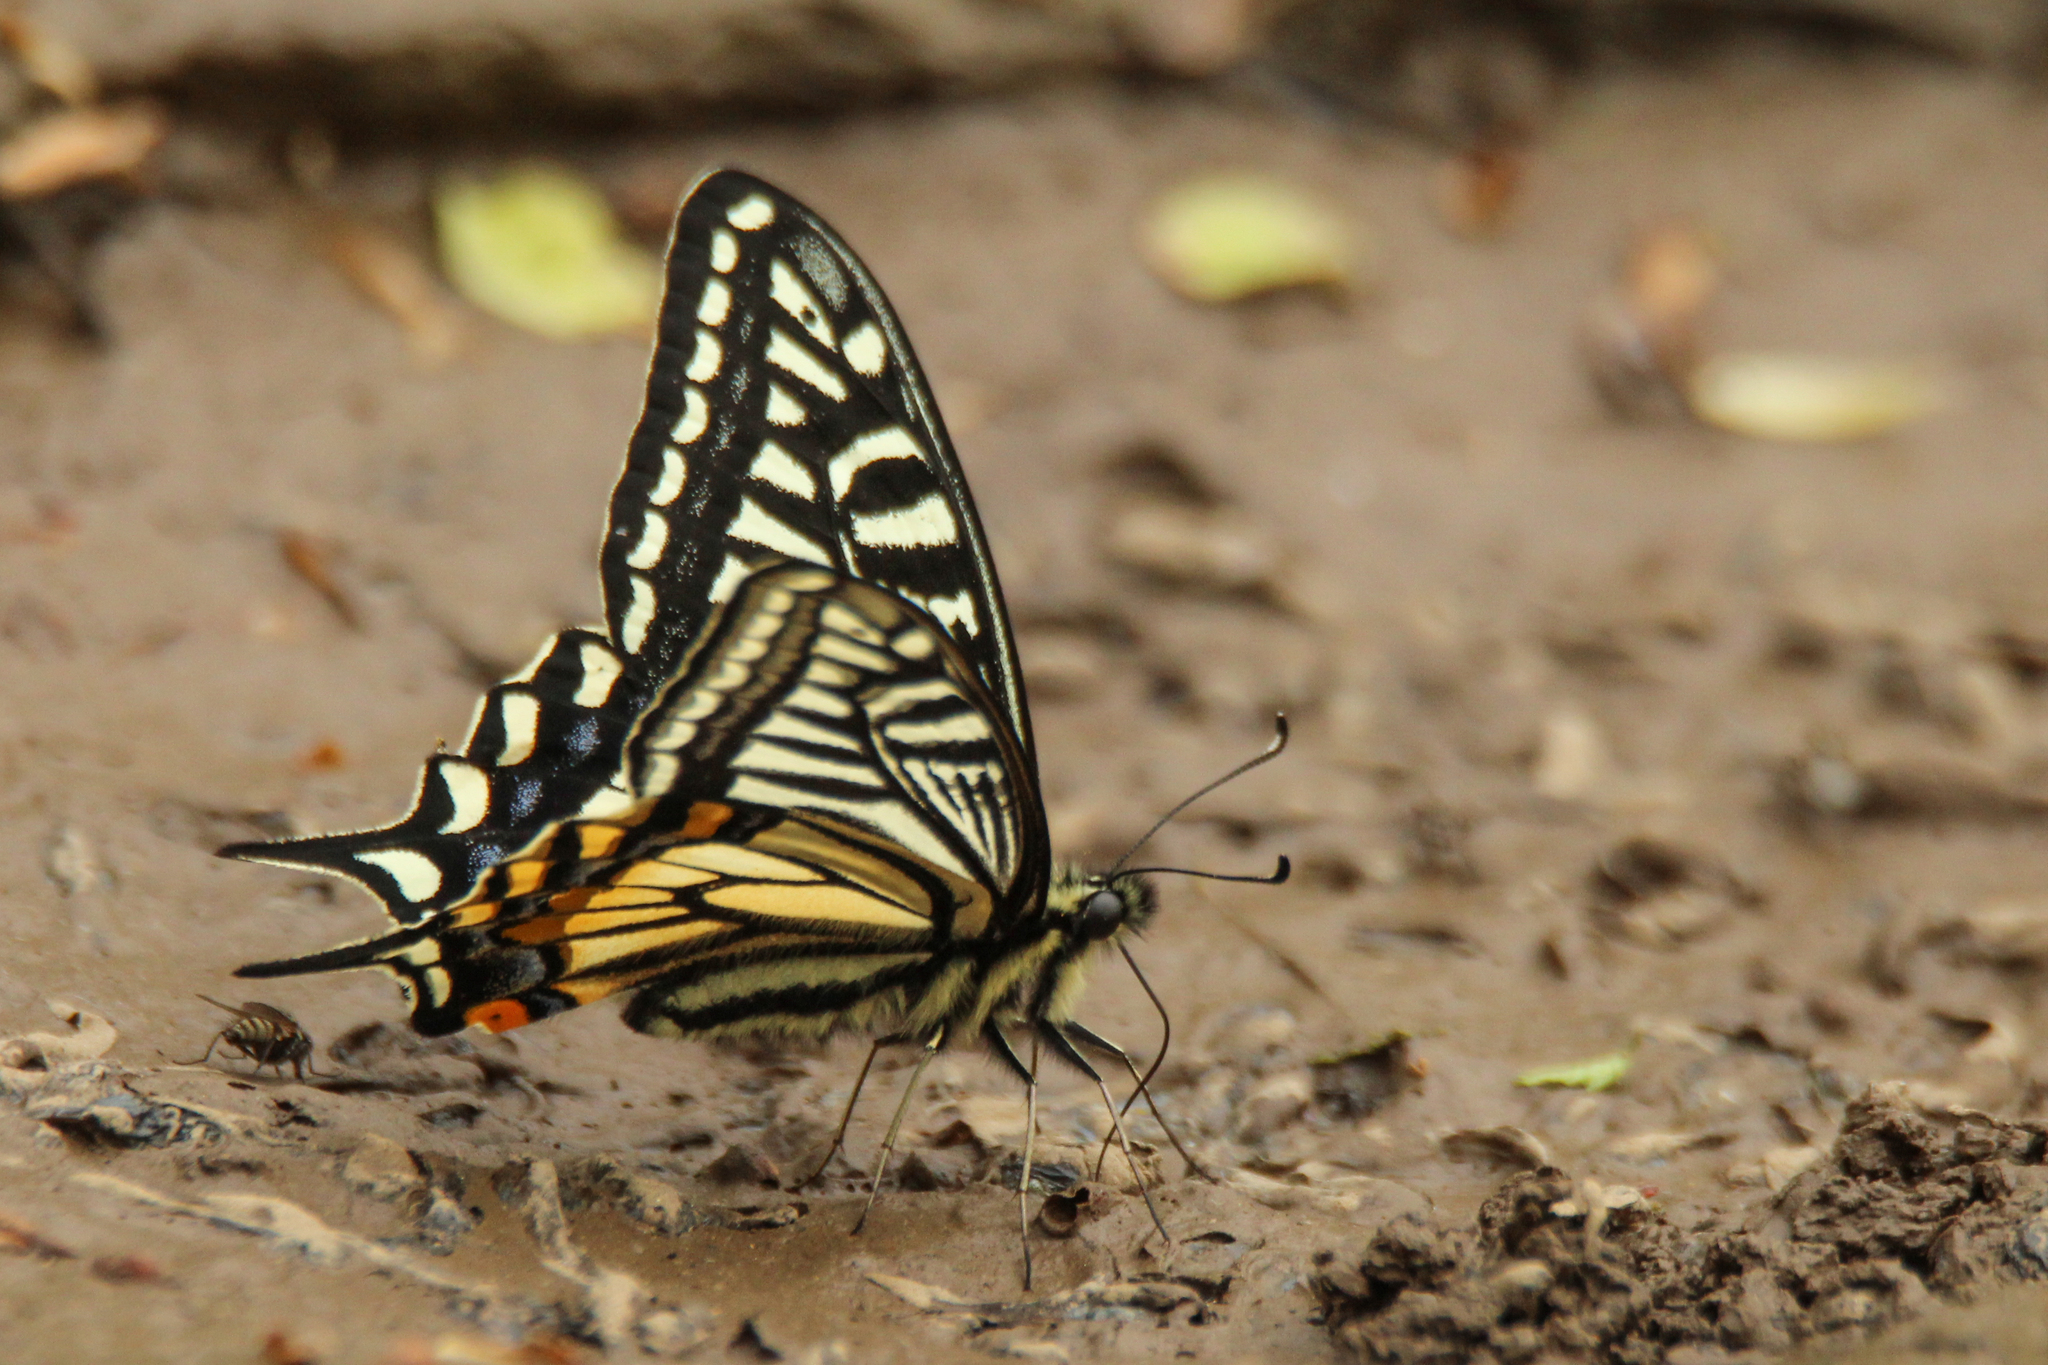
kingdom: Animalia
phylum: Arthropoda
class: Insecta
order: Lepidoptera
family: Papilionidae
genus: Papilio
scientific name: Papilio xuthus
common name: Asian swallowtail
